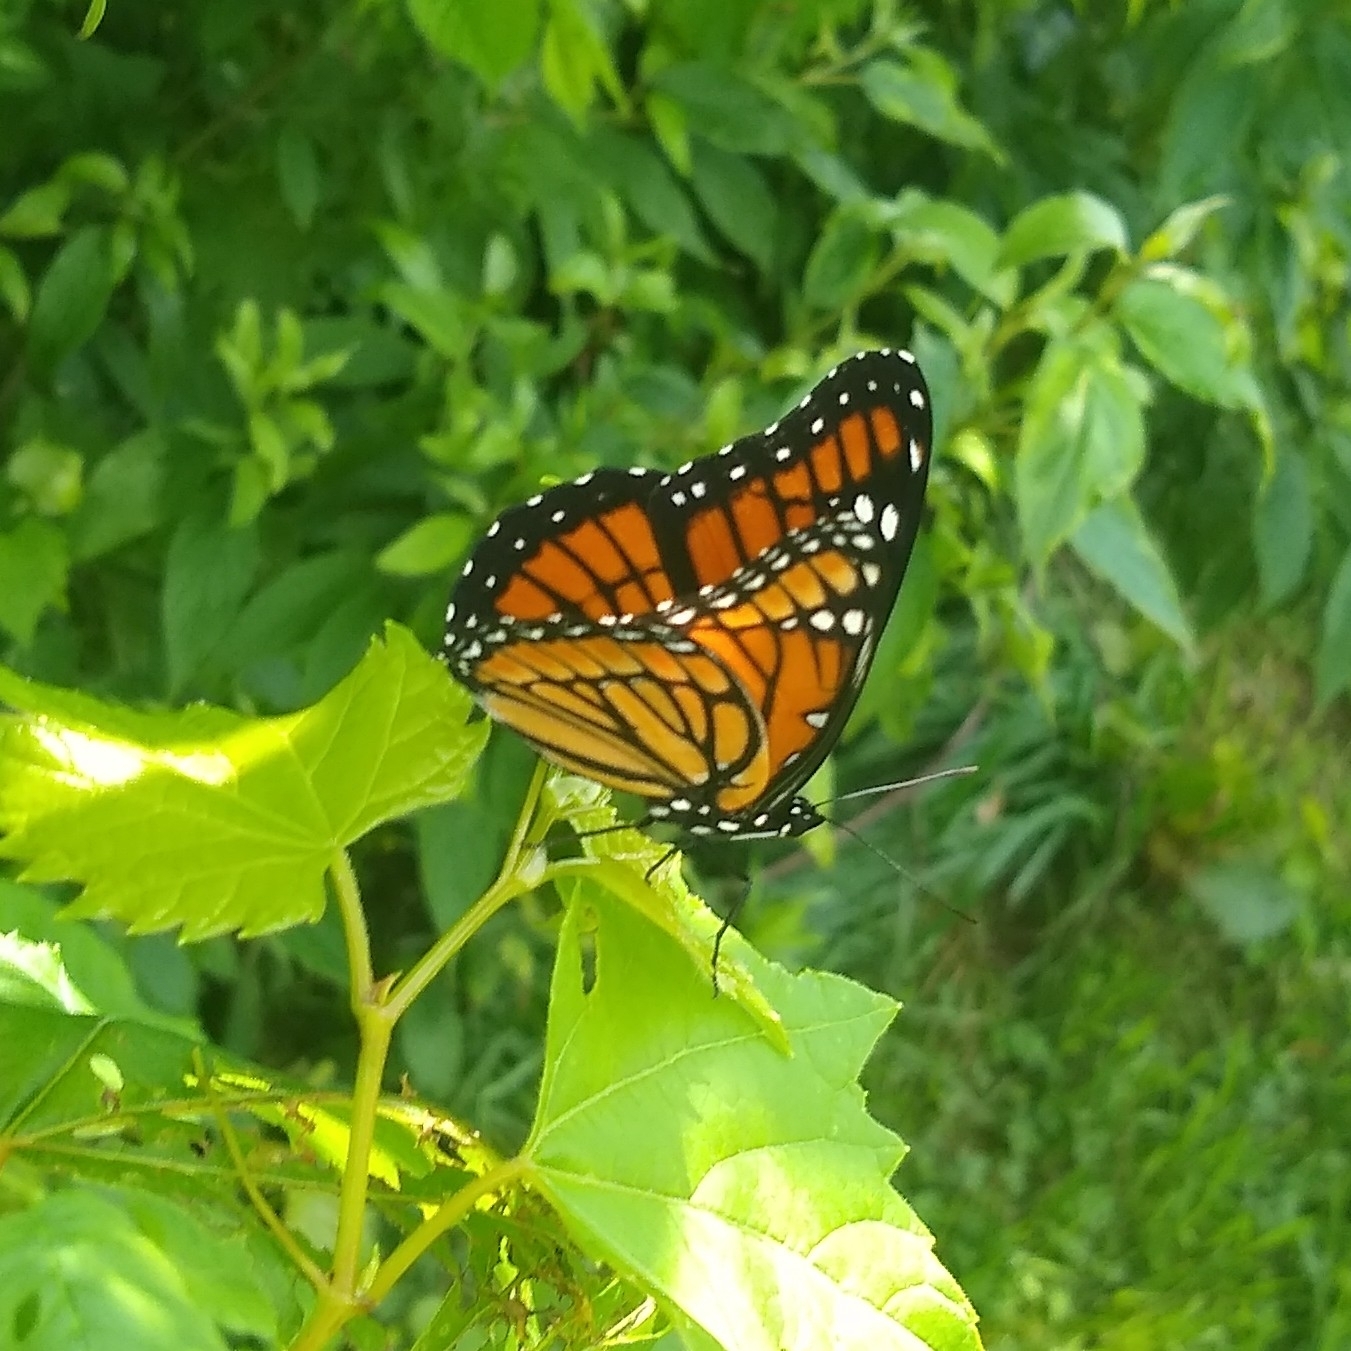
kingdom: Animalia
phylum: Arthropoda
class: Insecta
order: Lepidoptera
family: Nymphalidae
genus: Limenitis
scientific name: Limenitis archippus
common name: Viceroy
